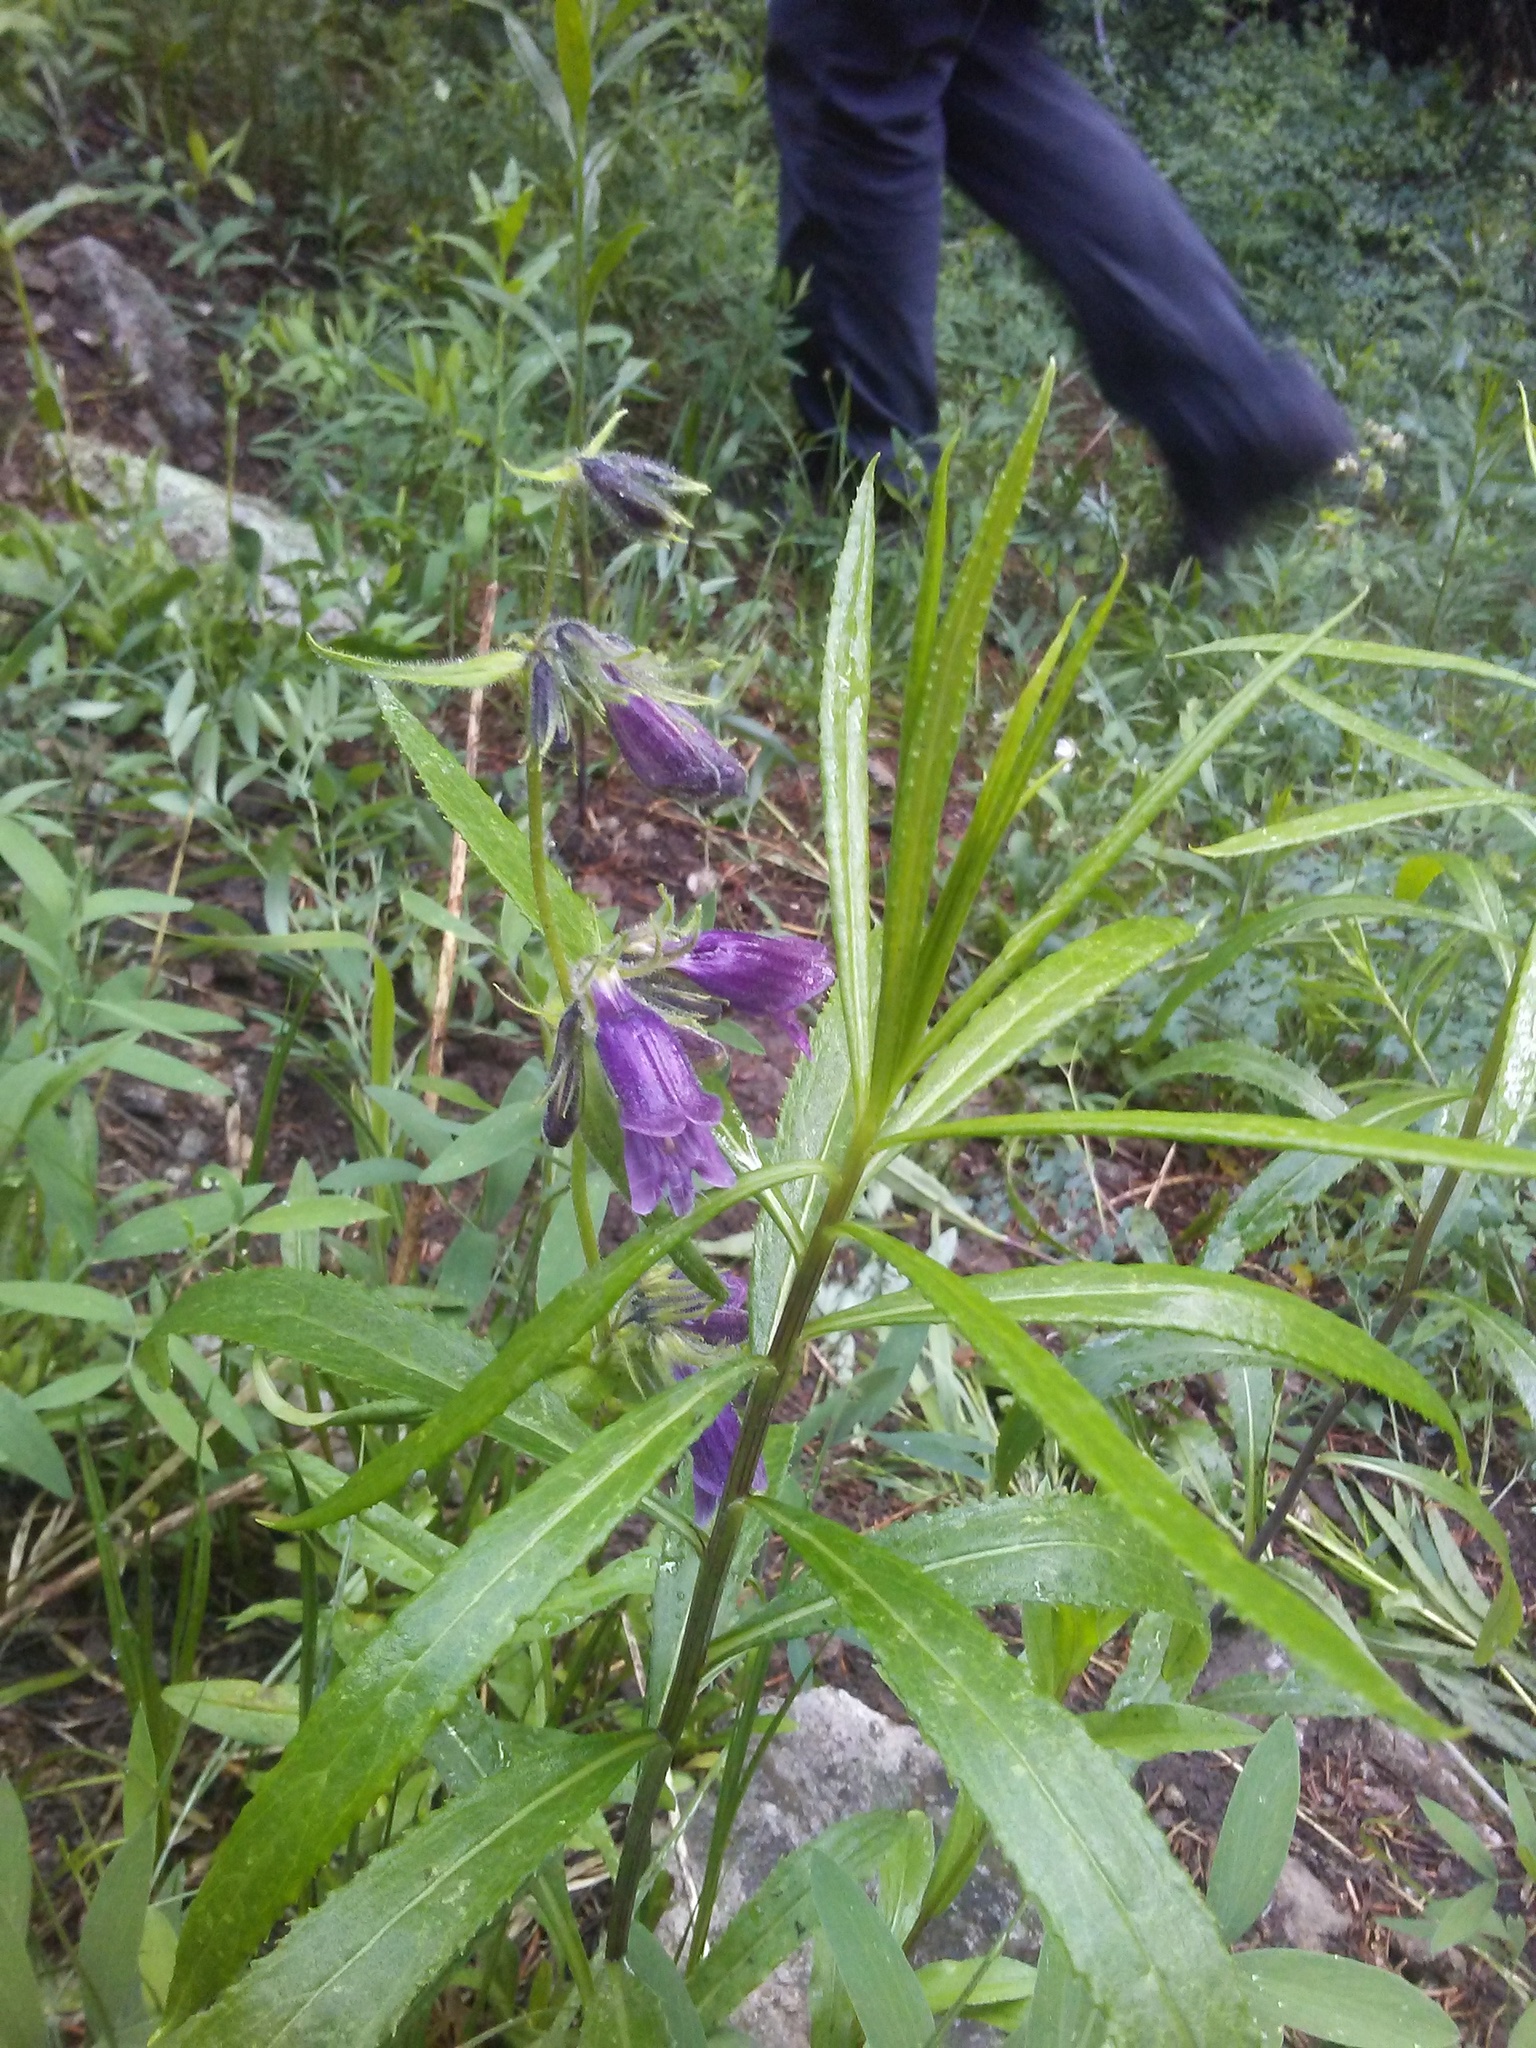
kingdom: Plantae
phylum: Tracheophyta
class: Magnoliopsida
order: Lamiales
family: Plantaginaceae
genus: Penstemon
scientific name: Penstemon whippleanus
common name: Whipple's penstemon
